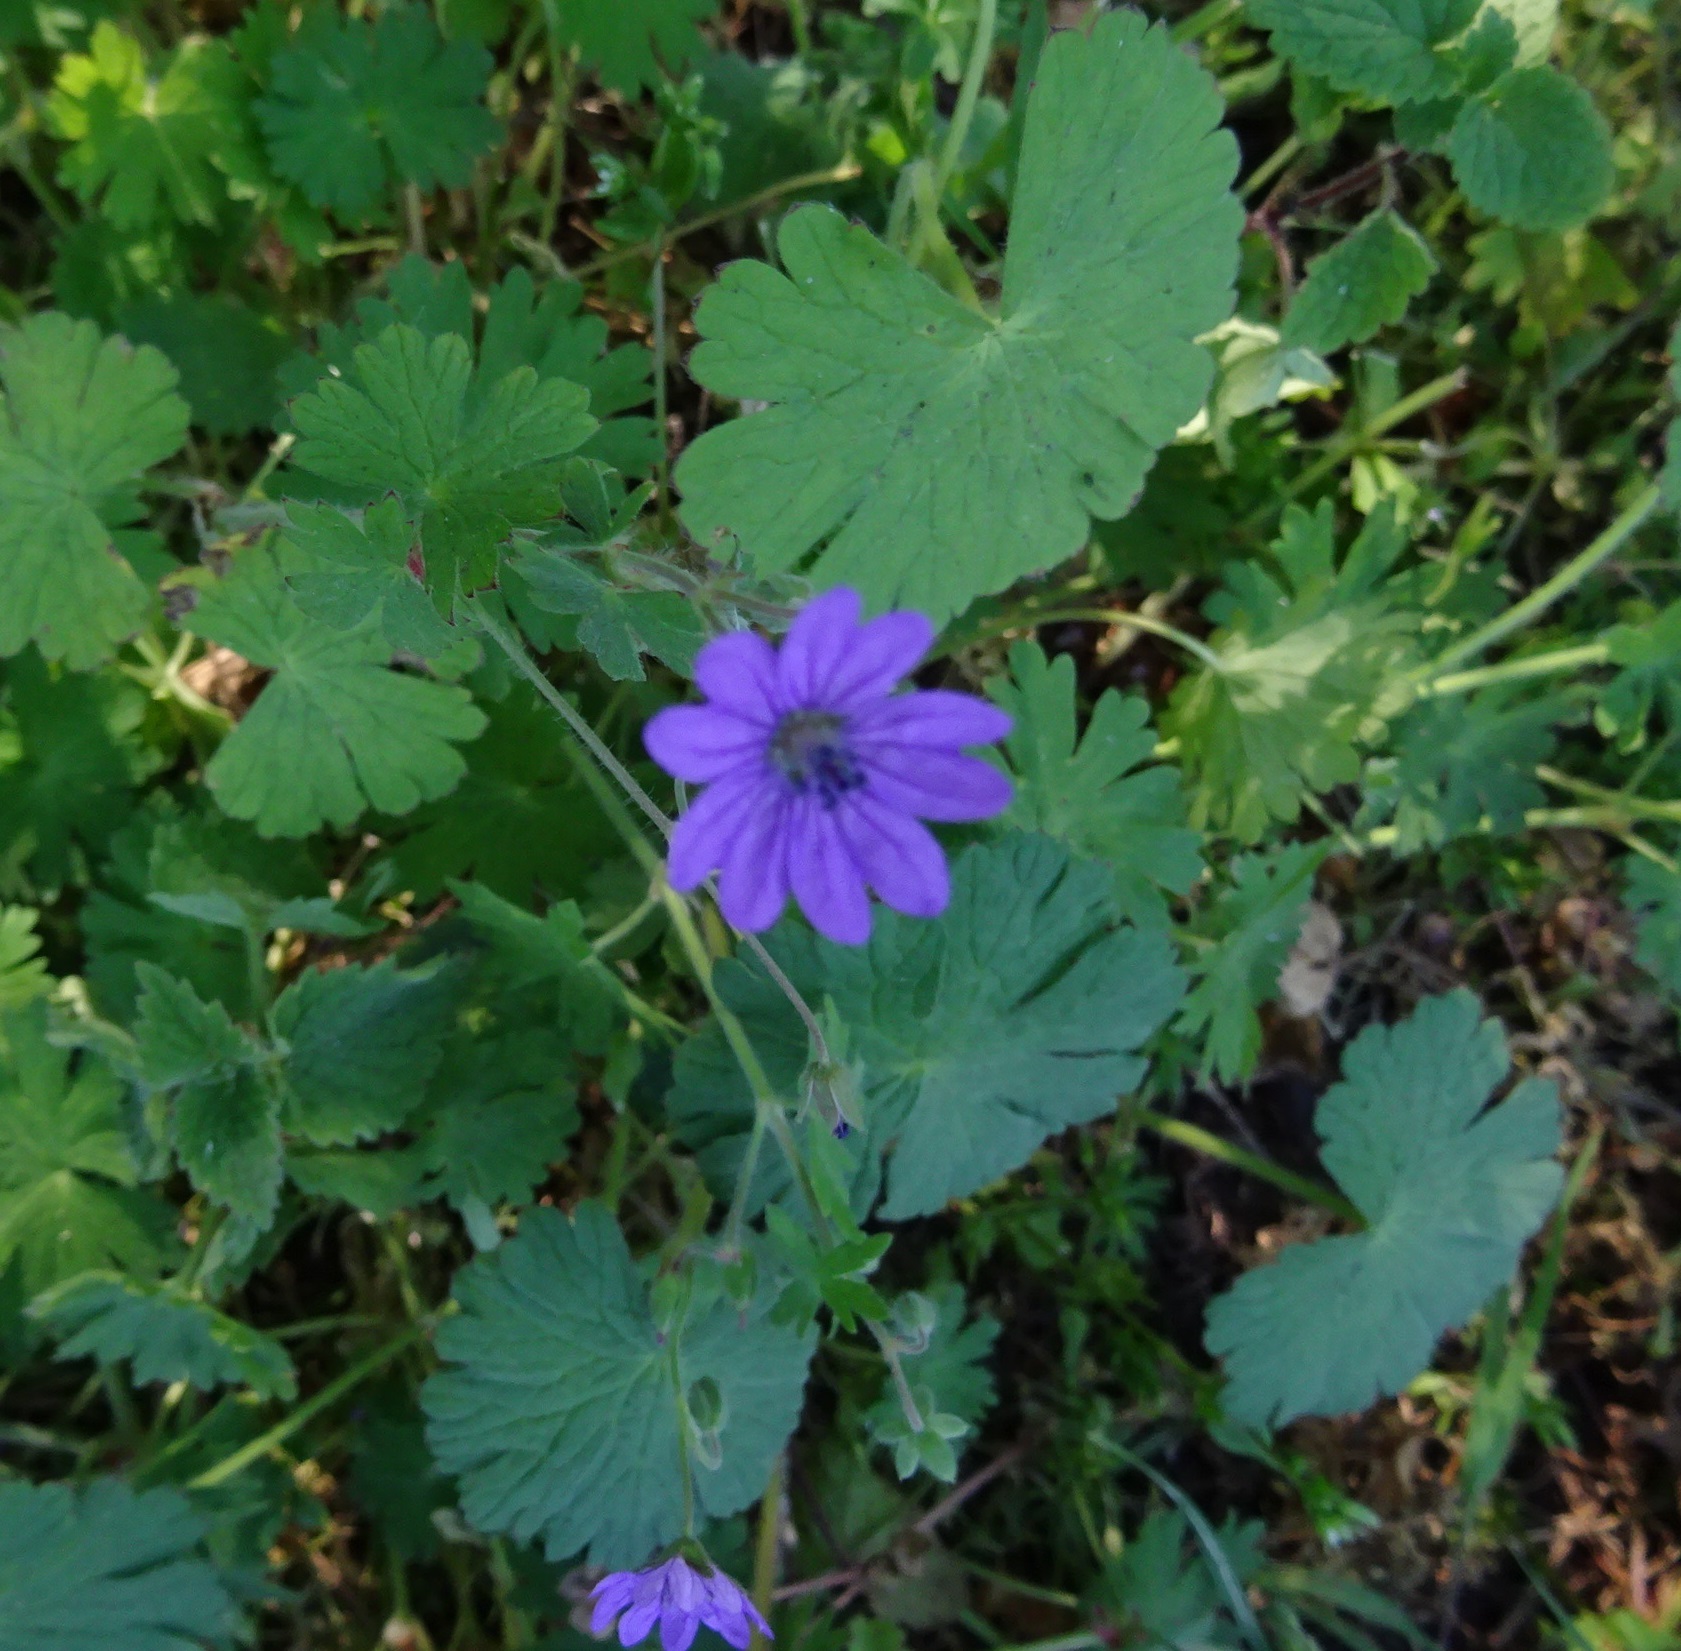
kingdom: Plantae
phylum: Tracheophyta
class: Magnoliopsida
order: Geraniales
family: Geraniaceae
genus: Geranium
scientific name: Geranium pyrenaicum
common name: Hedgerow crane's-bill
